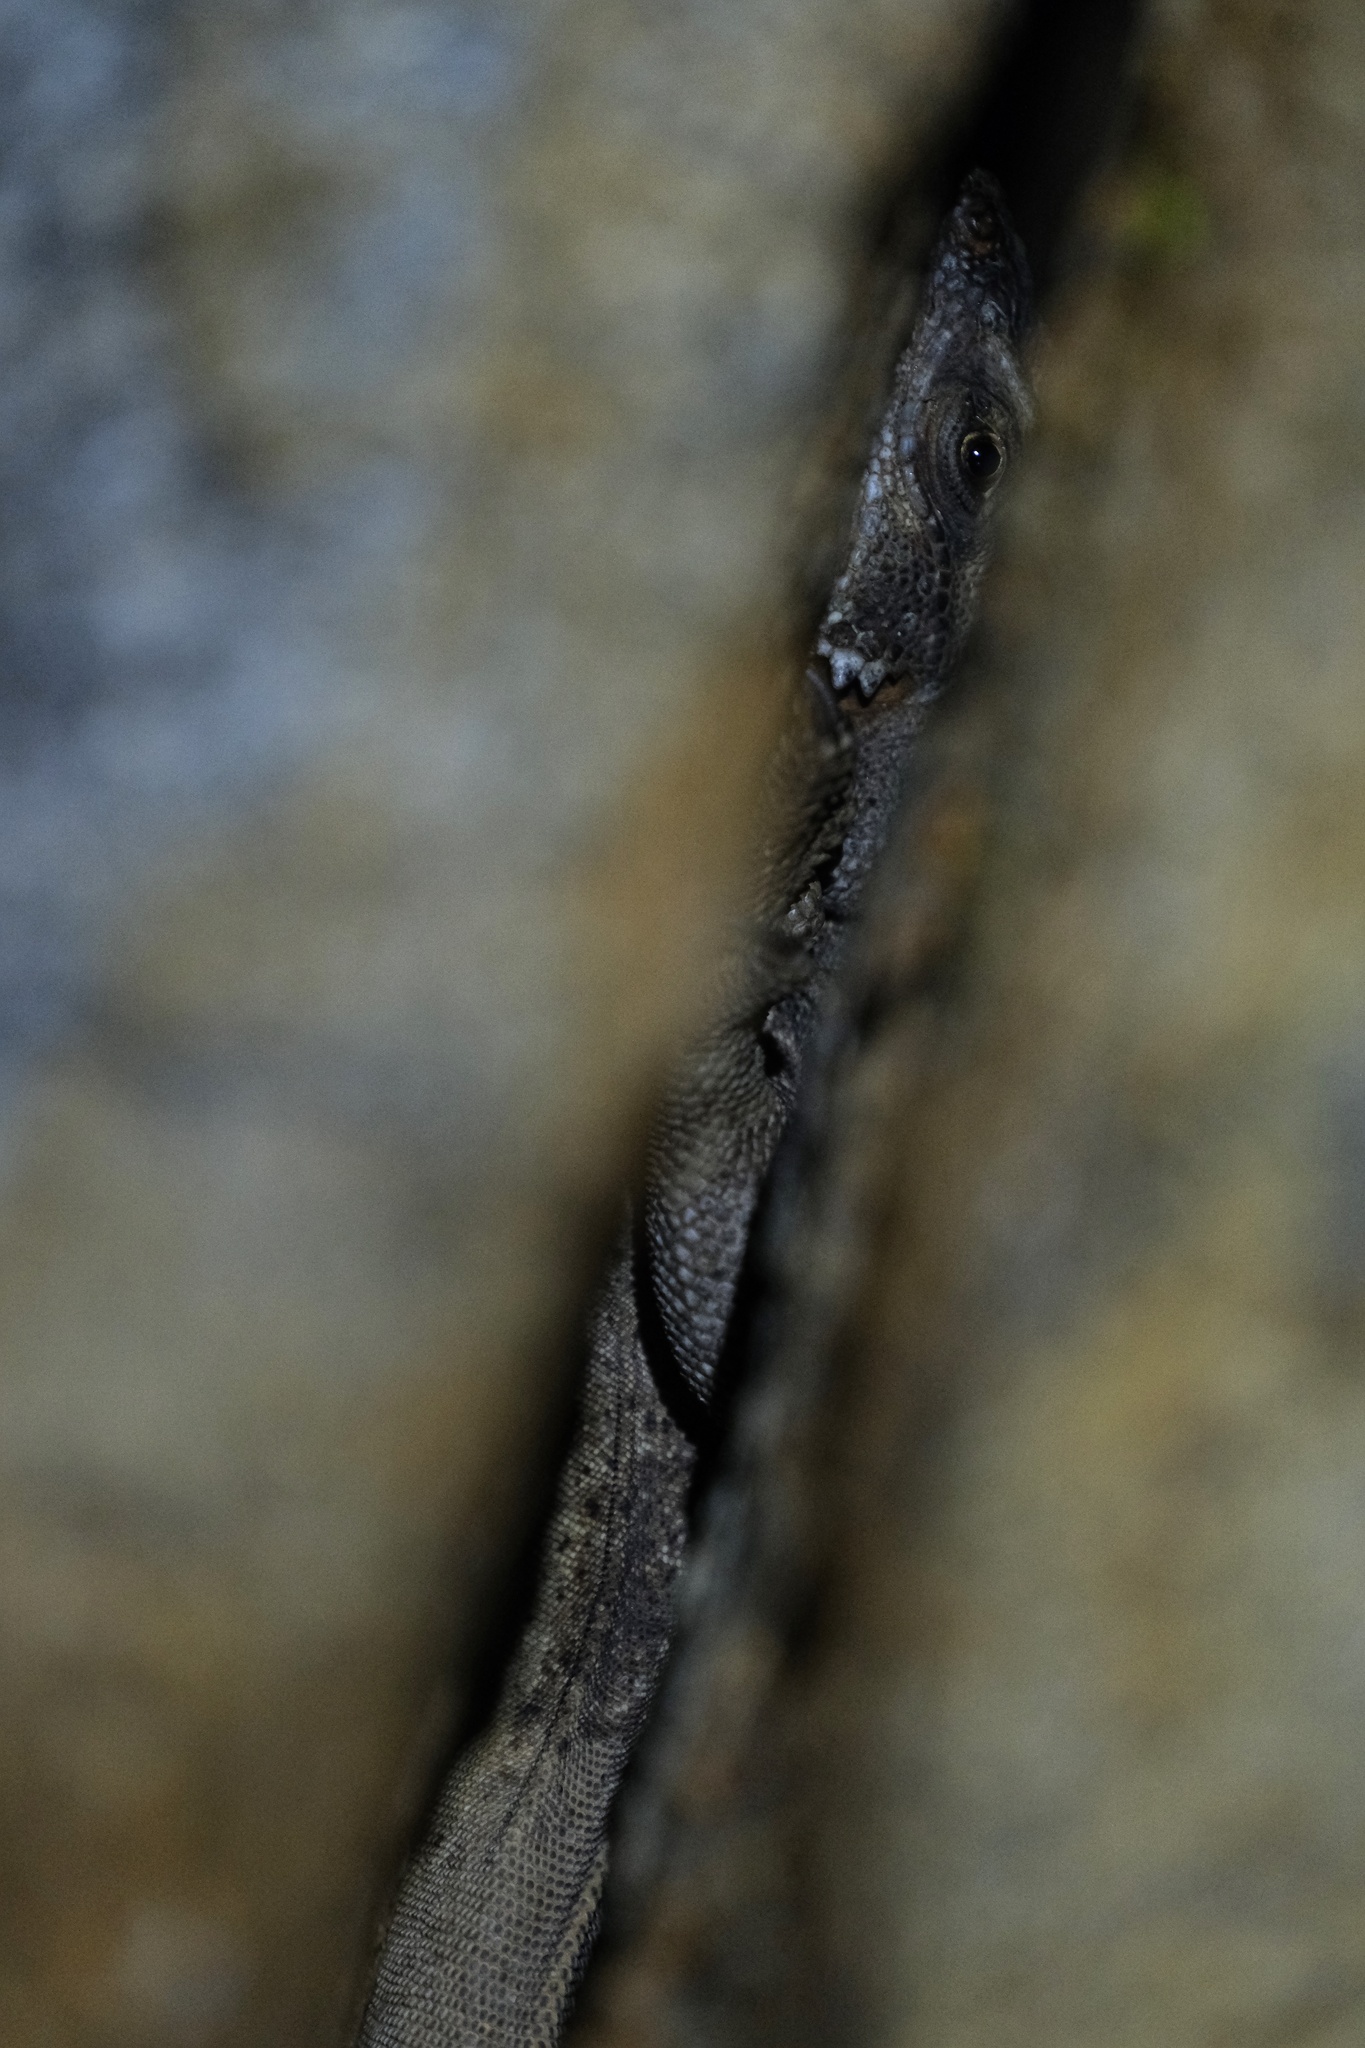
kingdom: Animalia
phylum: Chordata
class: Squamata
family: Iguanidae
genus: Sauromalus
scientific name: Sauromalus ater
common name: Northern chuckwalla
